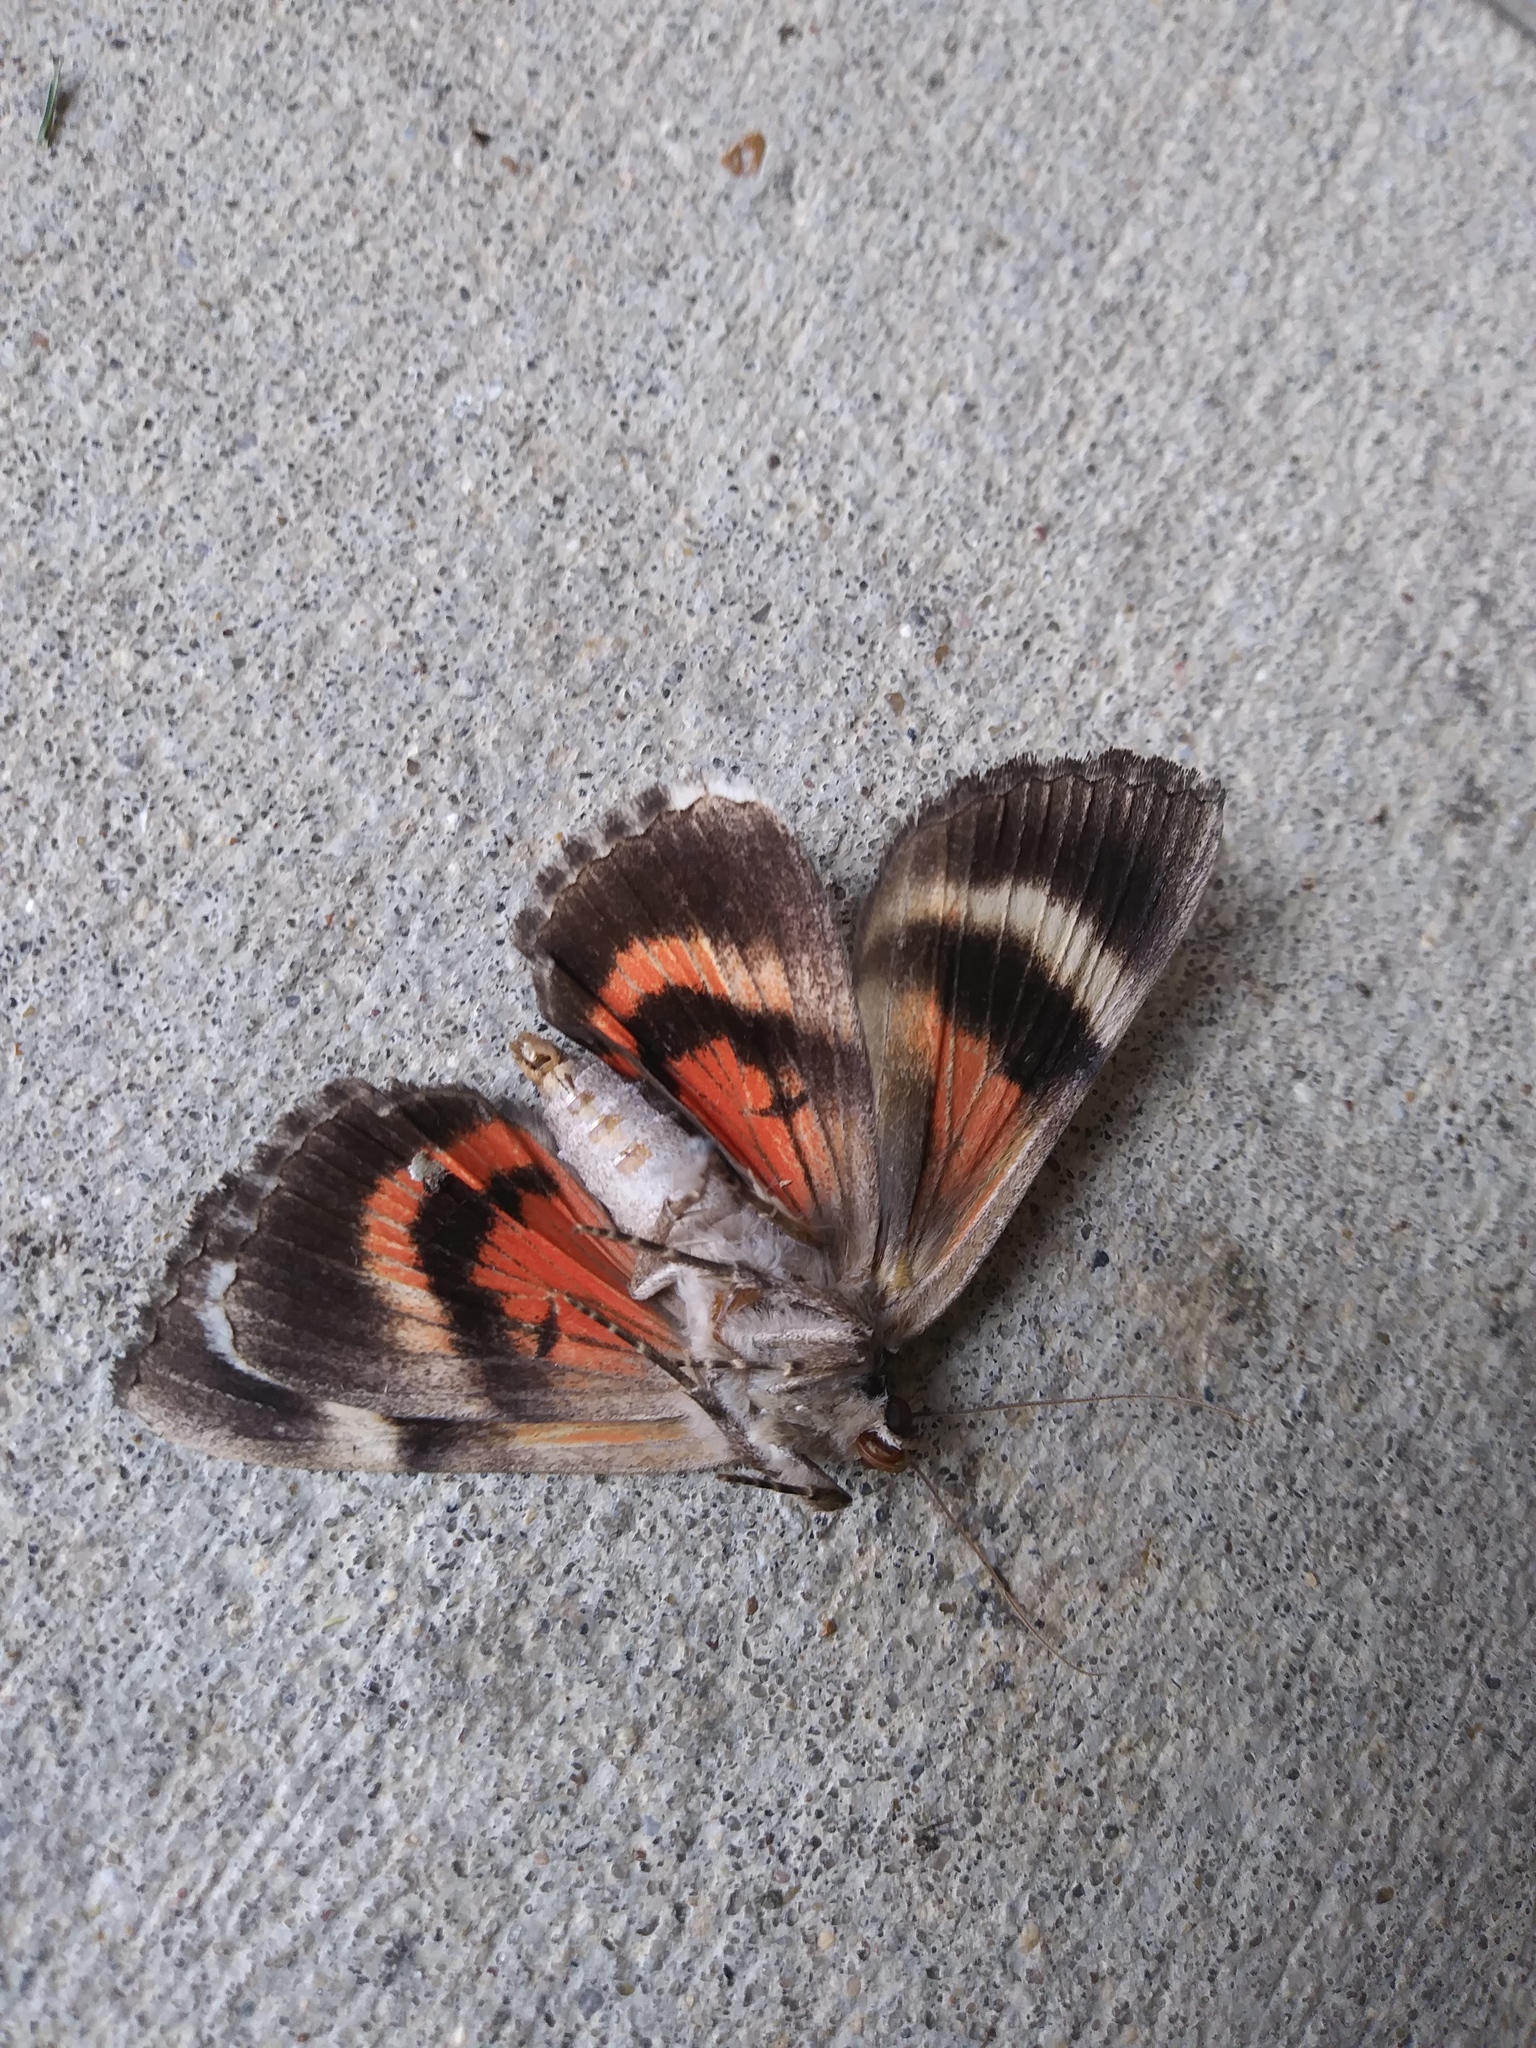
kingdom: Animalia
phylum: Arthropoda
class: Insecta
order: Lepidoptera
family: Erebidae
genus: Catocala
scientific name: Catocala ultronia
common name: Ultronia underwing
